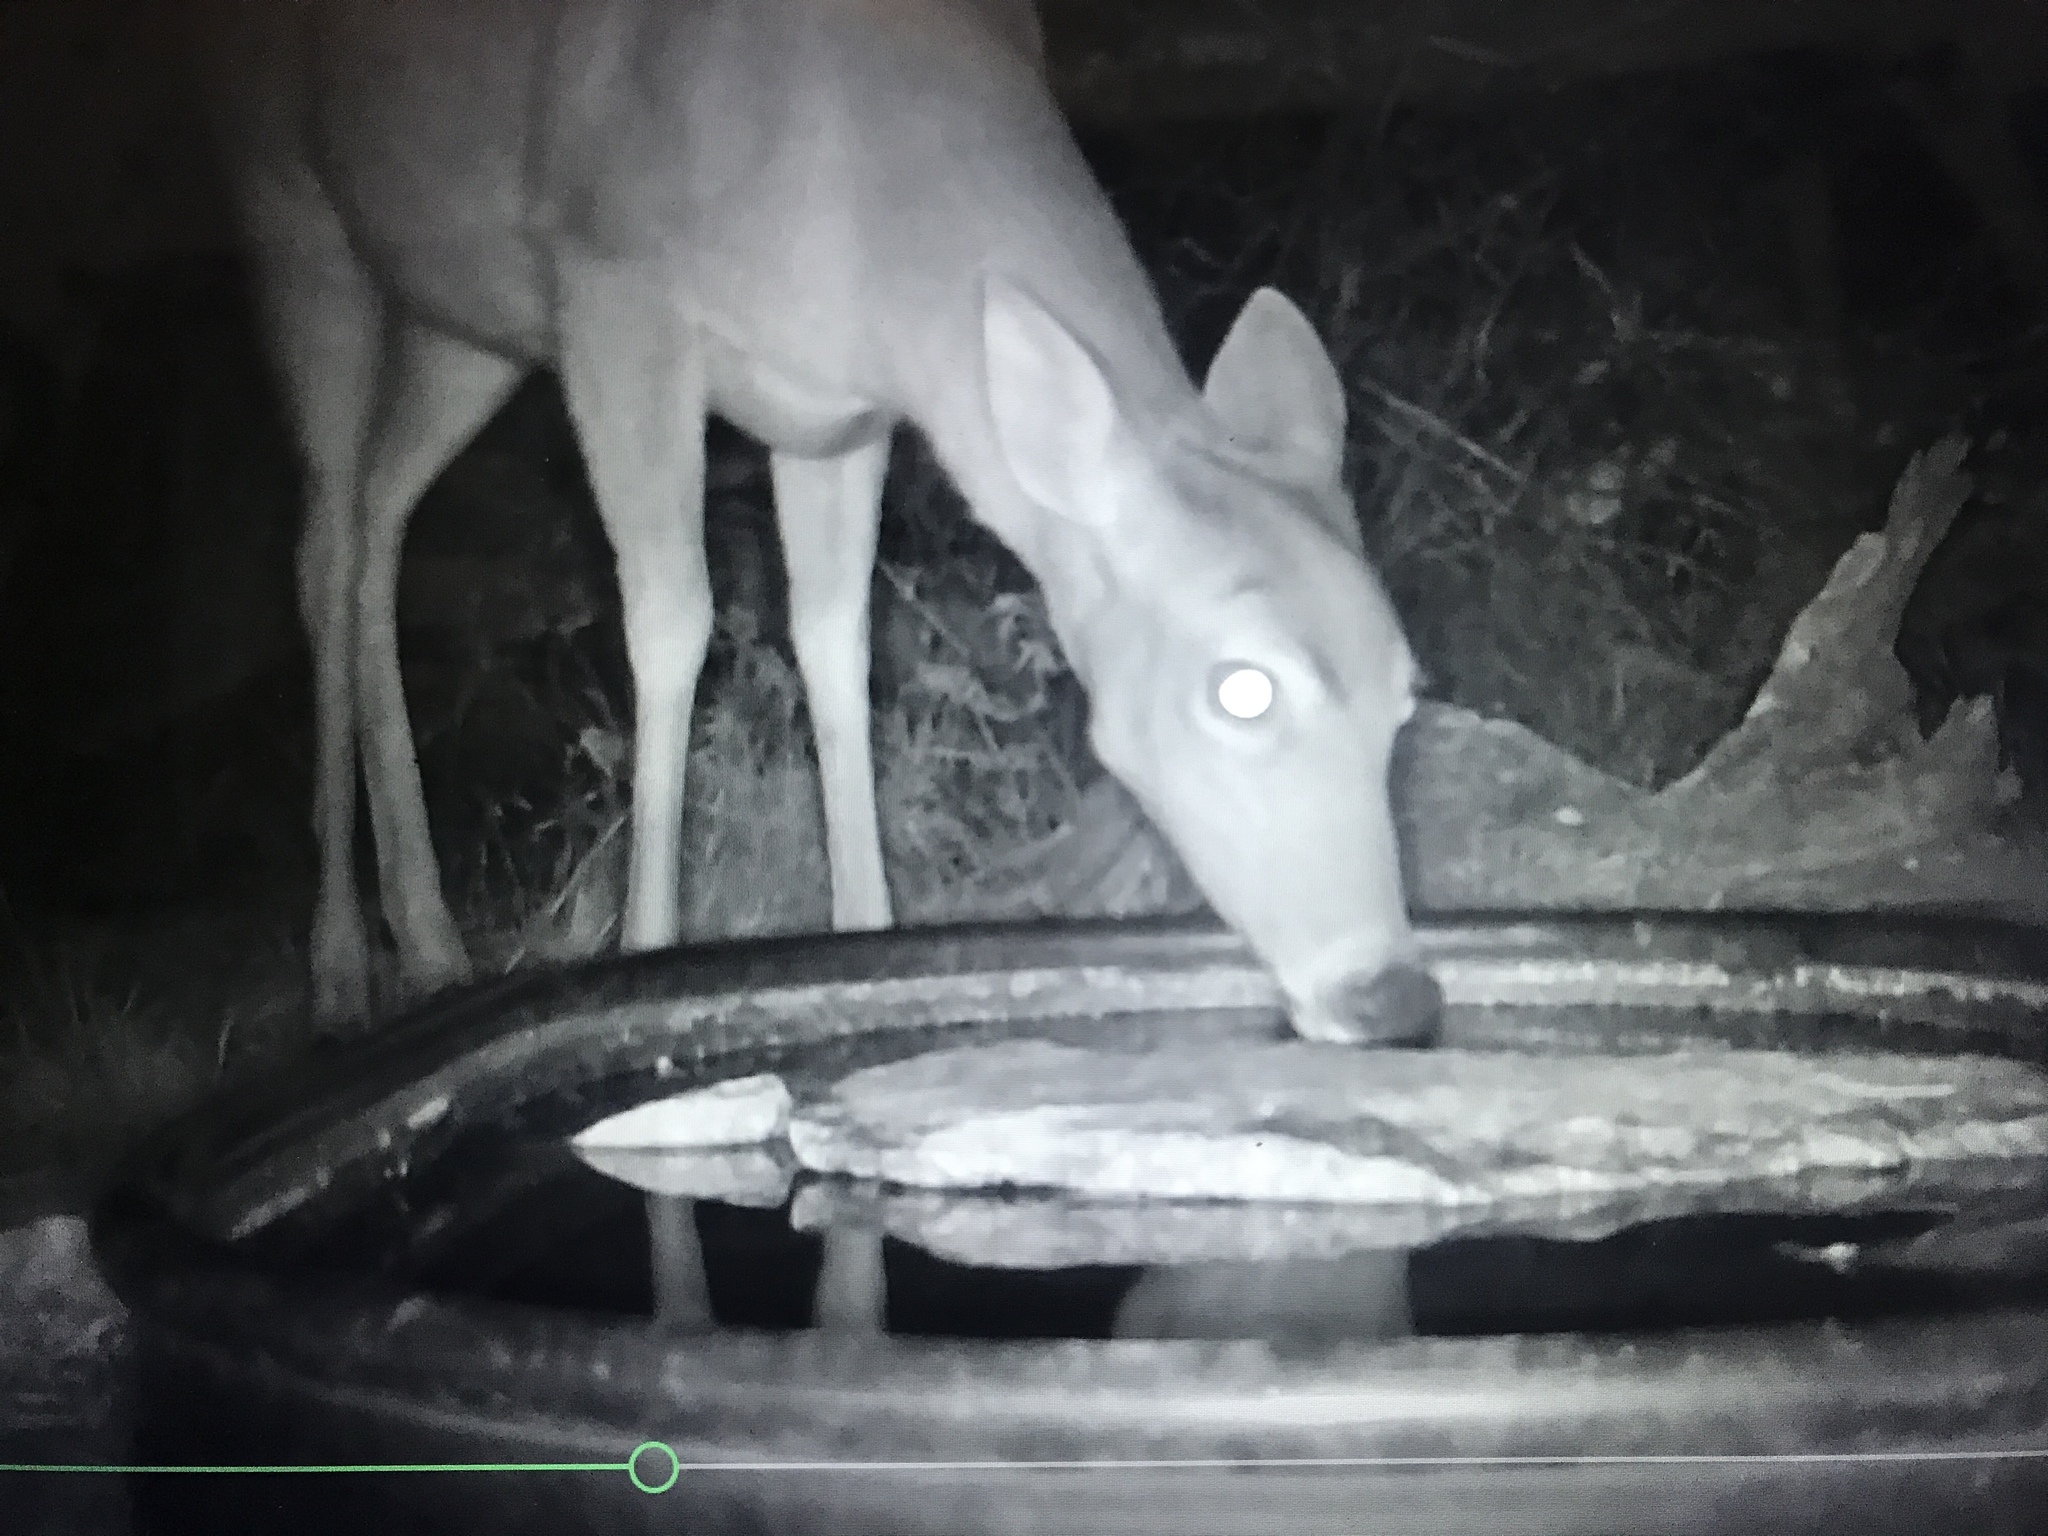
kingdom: Animalia
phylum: Chordata
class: Mammalia
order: Artiodactyla
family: Cervidae
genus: Odocoileus
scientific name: Odocoileus virginianus
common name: White-tailed deer
